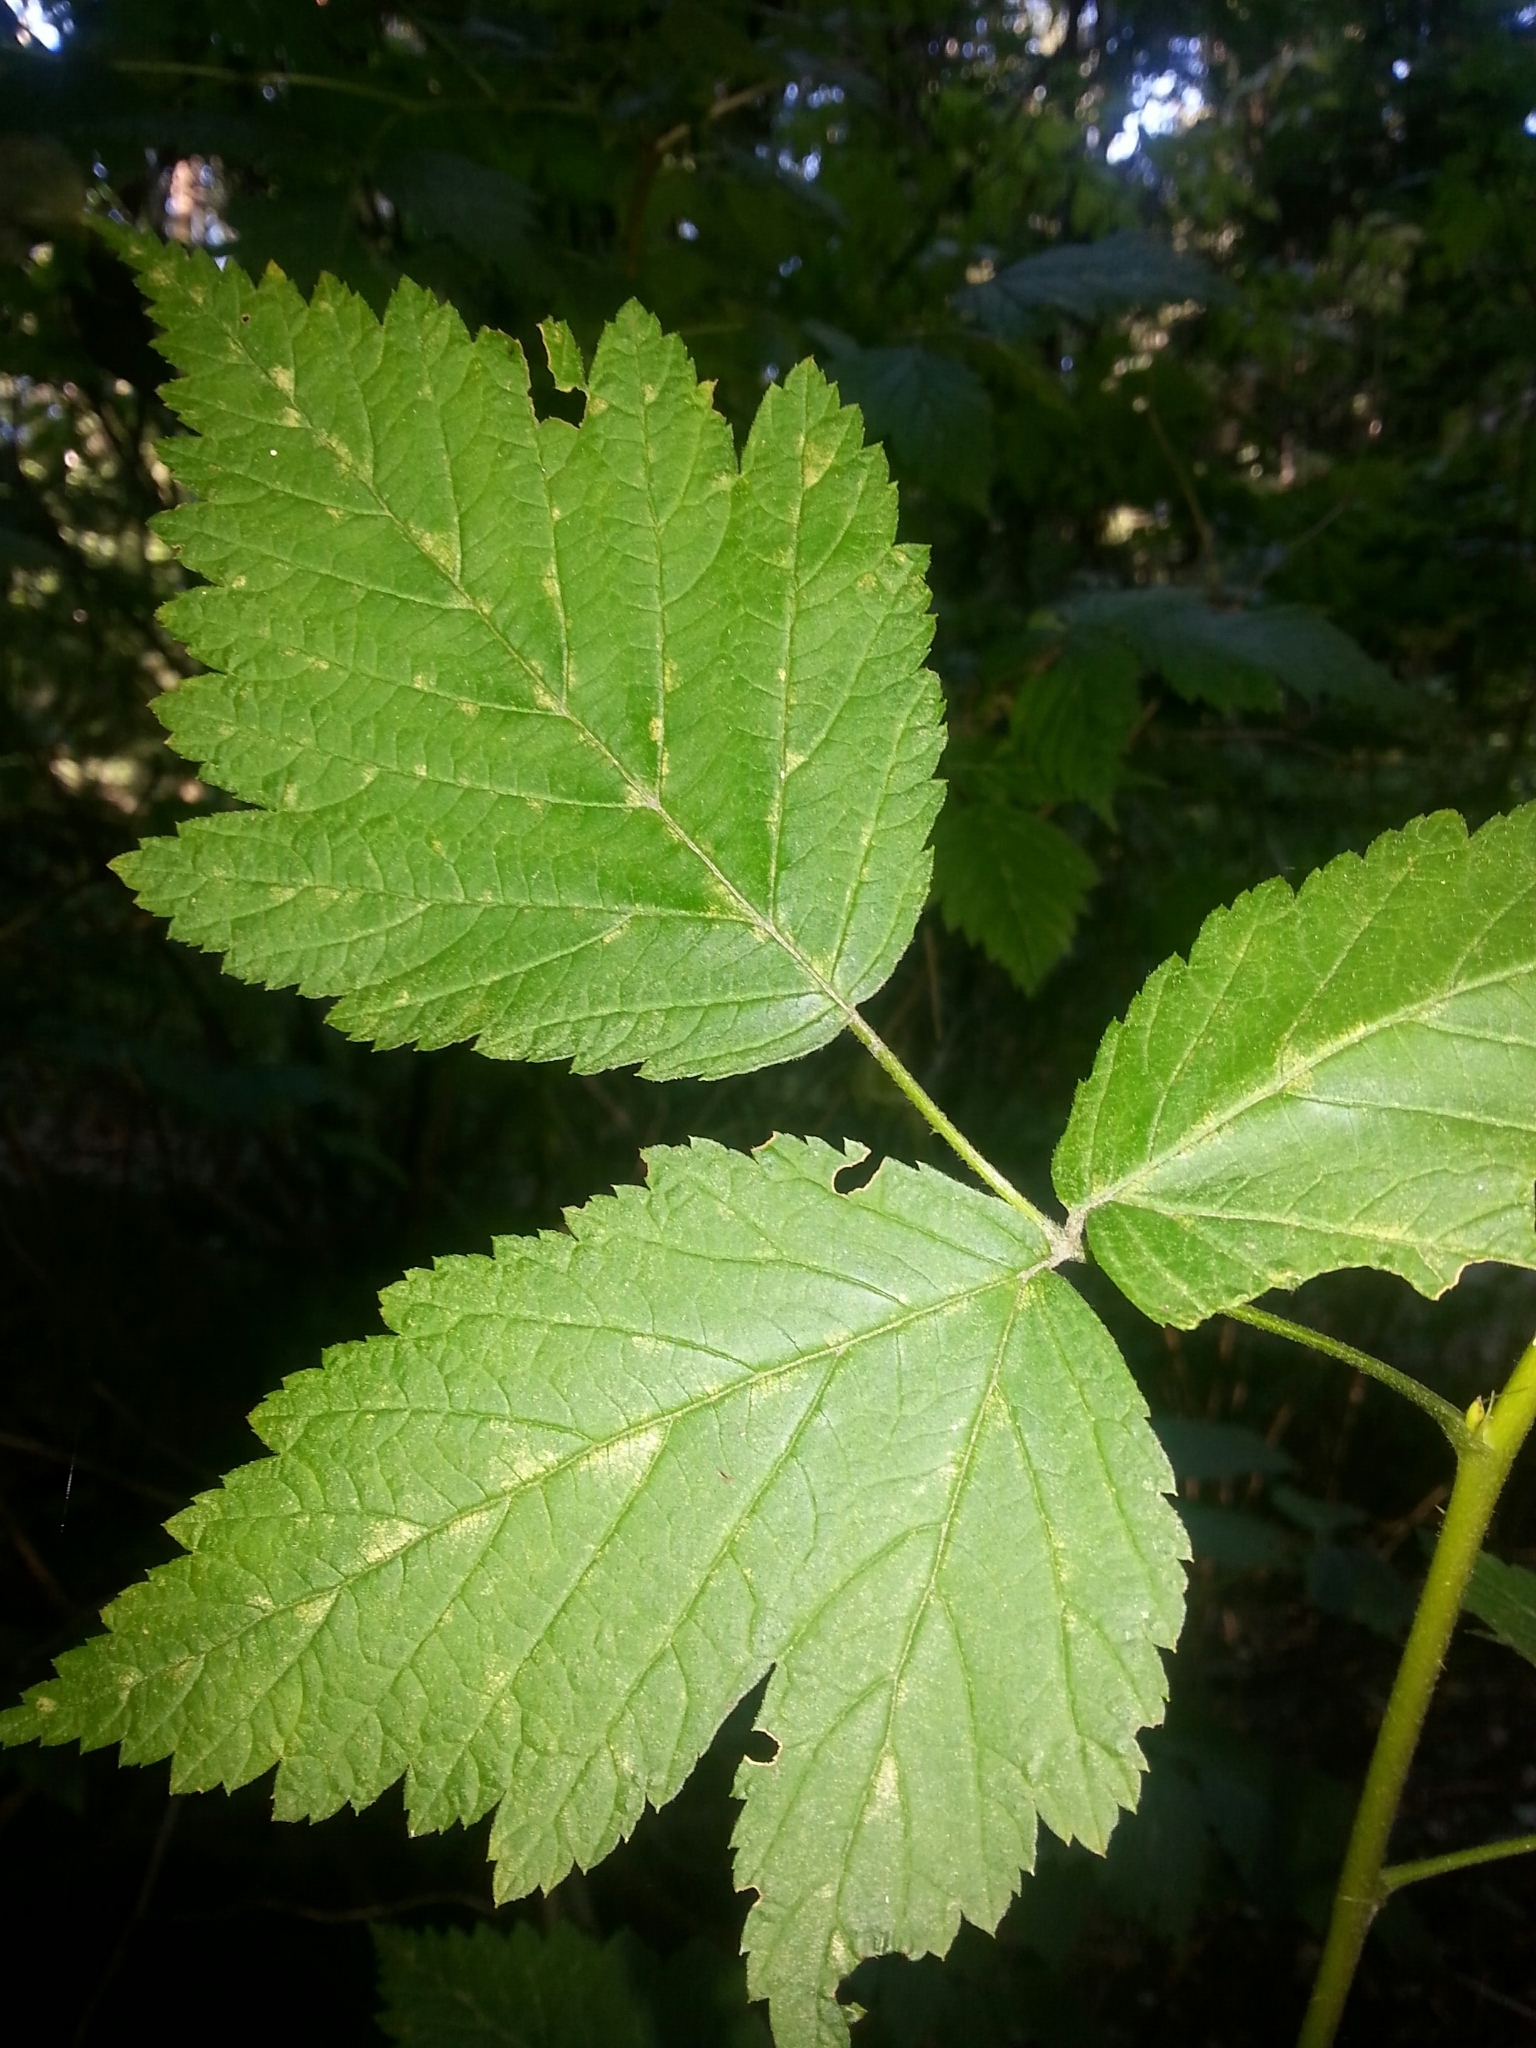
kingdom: Plantae
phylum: Tracheophyta
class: Magnoliopsida
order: Rosales
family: Rosaceae
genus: Rubus
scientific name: Rubus spectabilis
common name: Salmonberry
